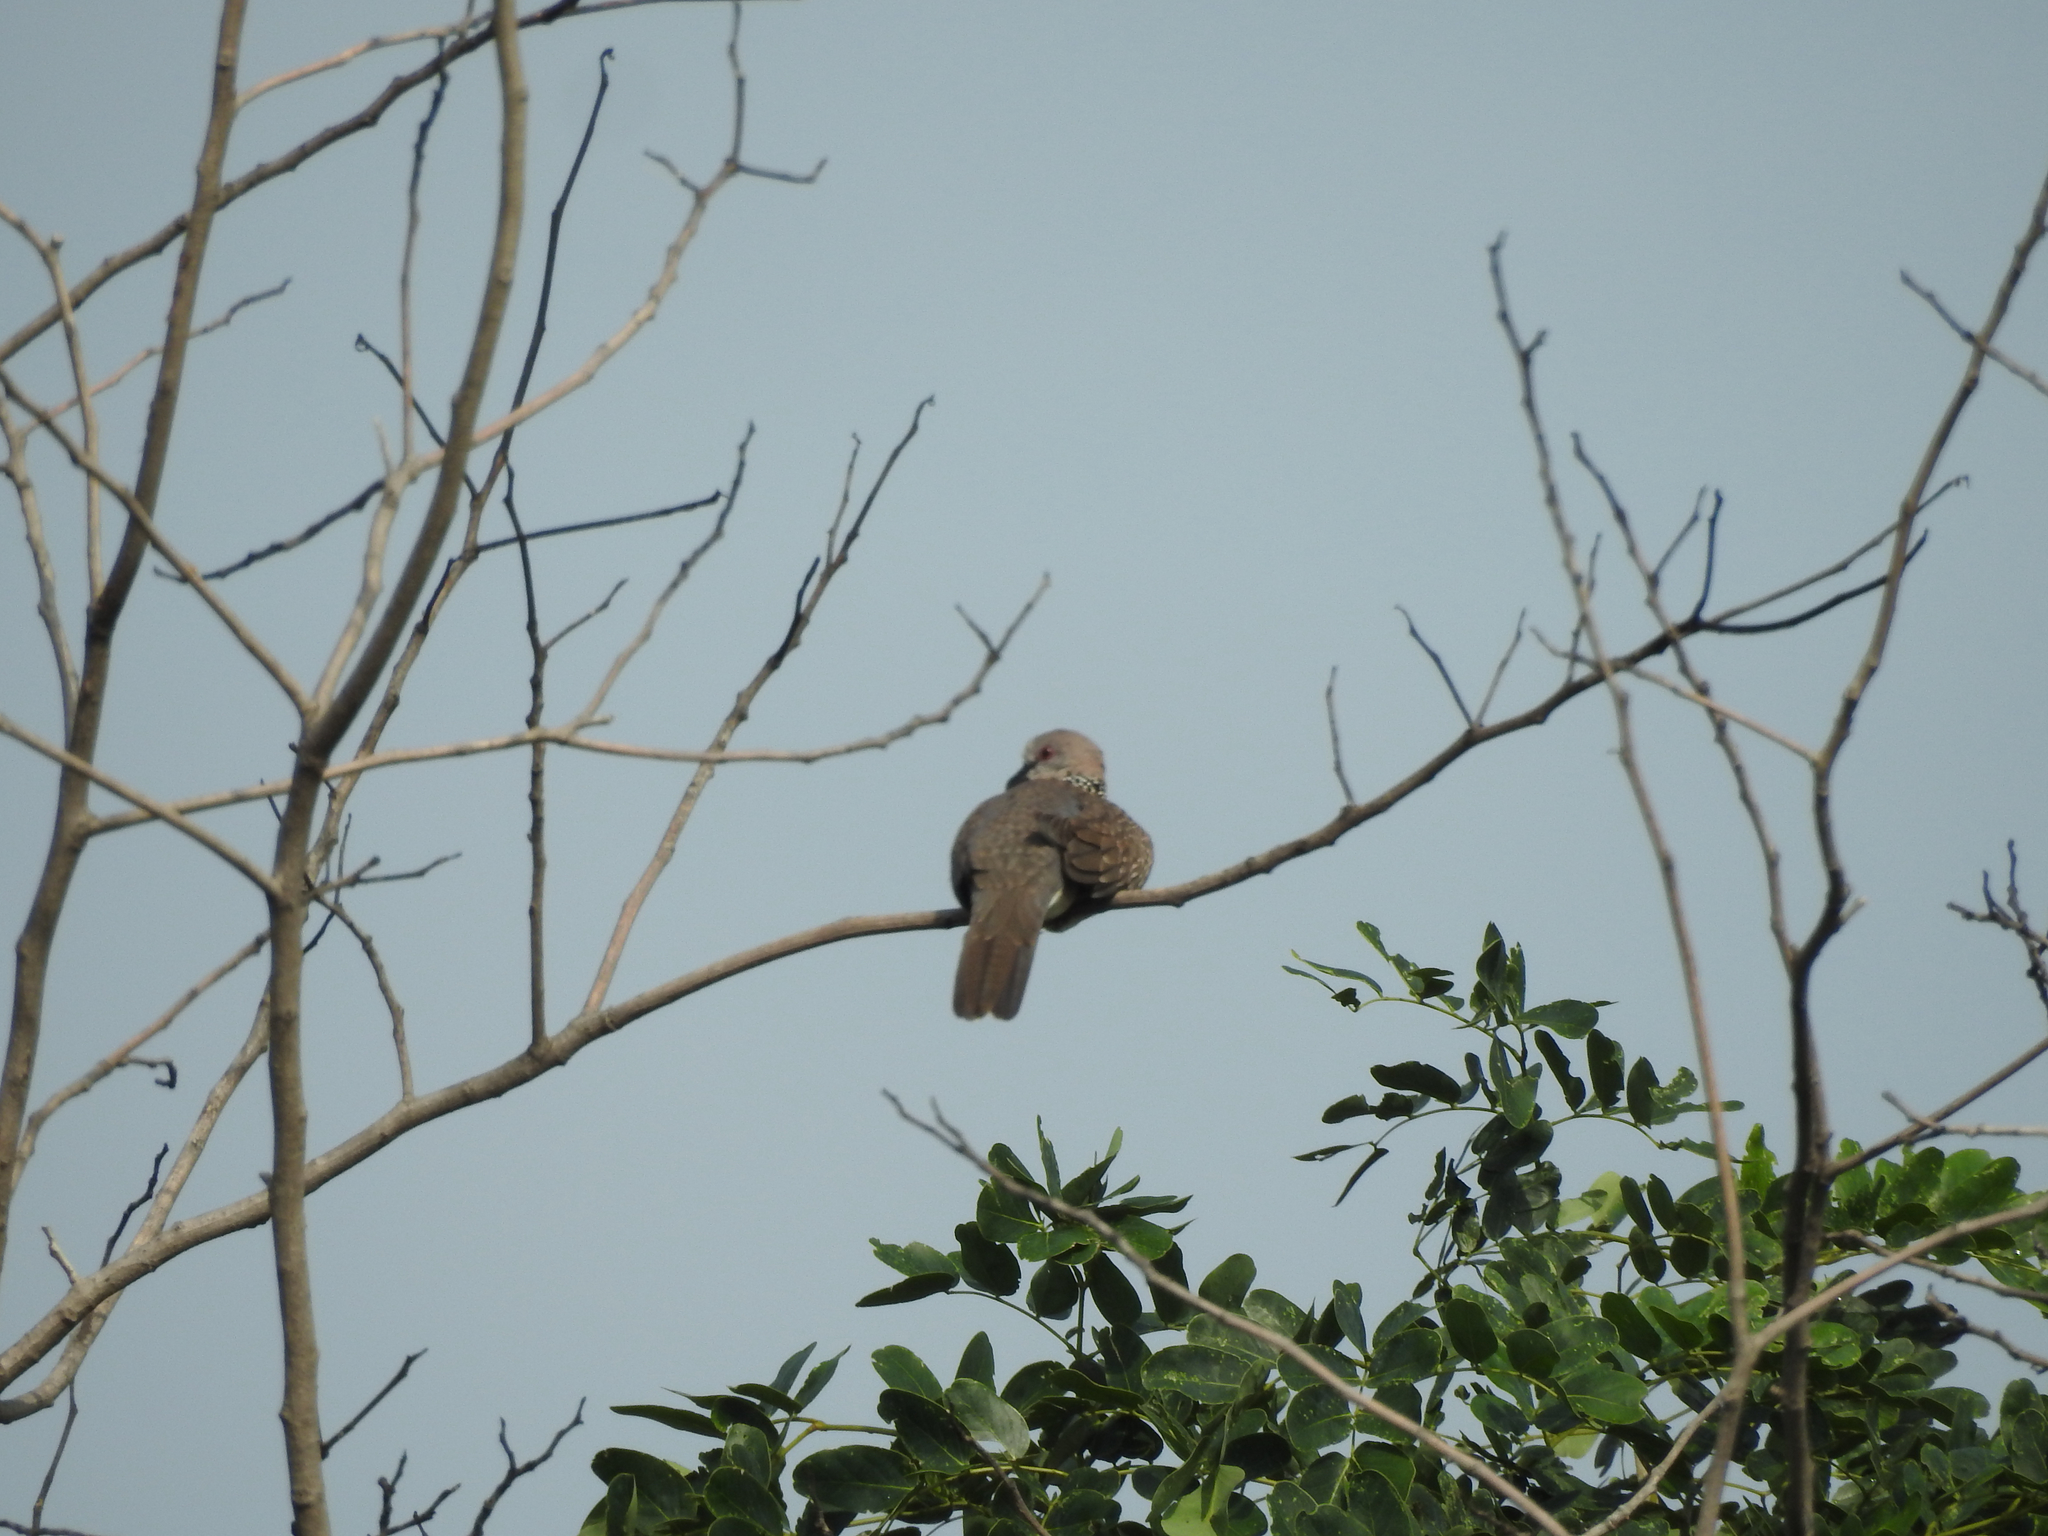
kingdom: Animalia
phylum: Chordata
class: Aves
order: Columbiformes
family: Columbidae
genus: Spilopelia
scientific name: Spilopelia chinensis
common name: Spotted dove
